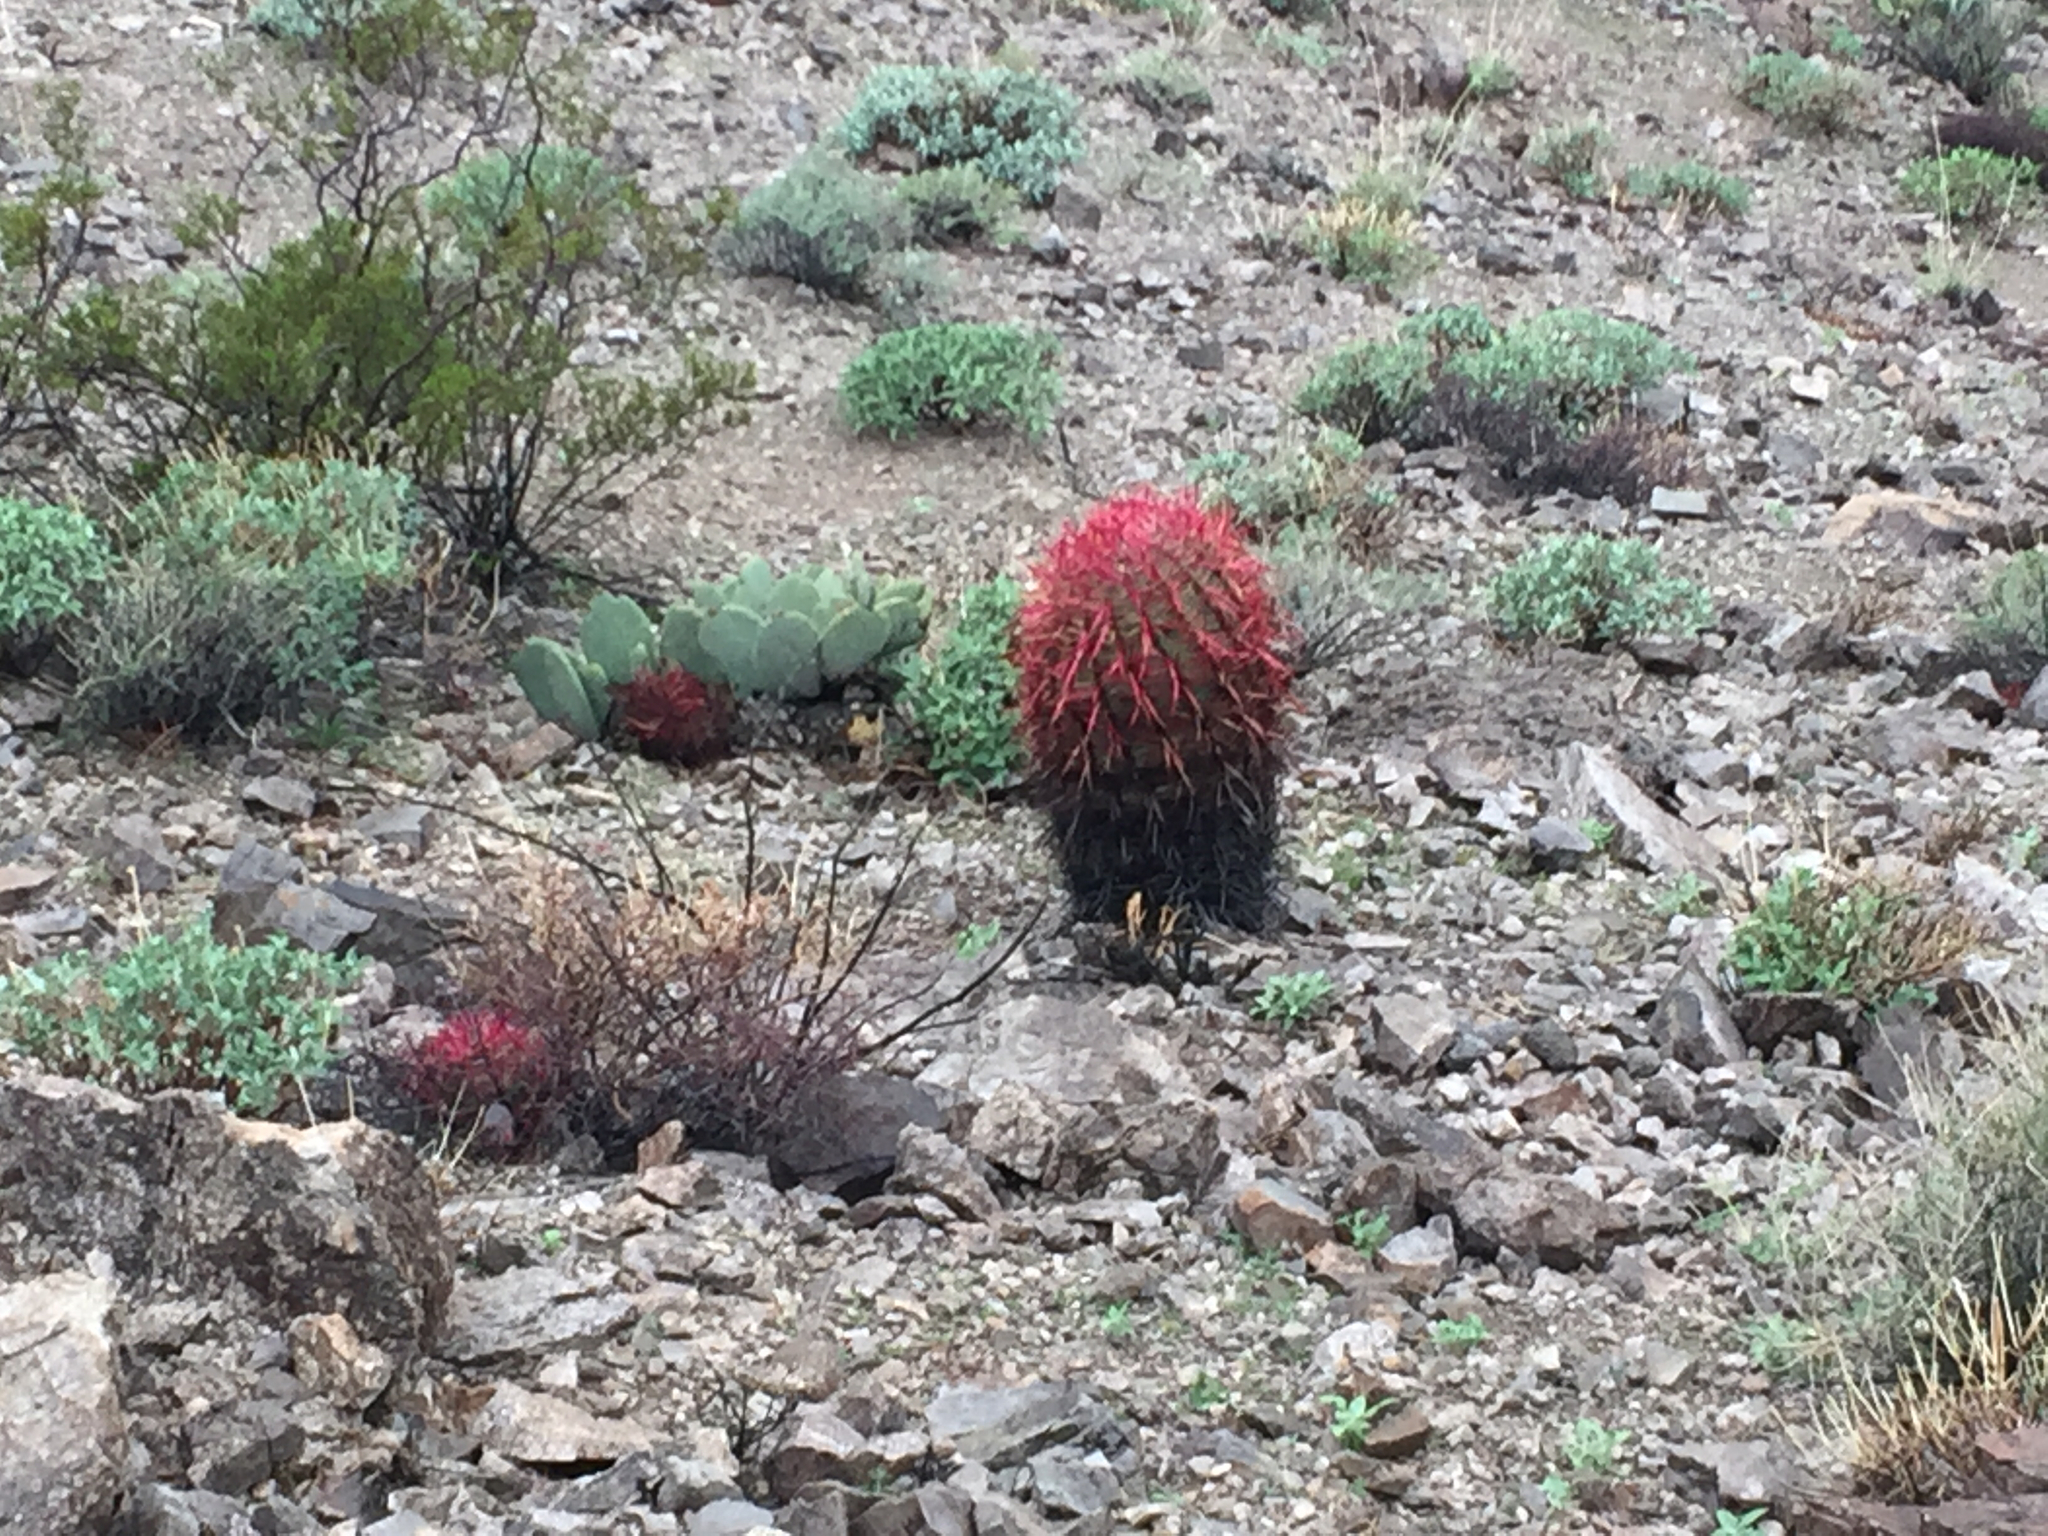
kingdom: Plantae
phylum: Tracheophyta
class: Magnoliopsida
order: Caryophyllales
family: Cactaceae
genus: Ferocactus
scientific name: Ferocactus cylindraceus
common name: California barrel cactus
